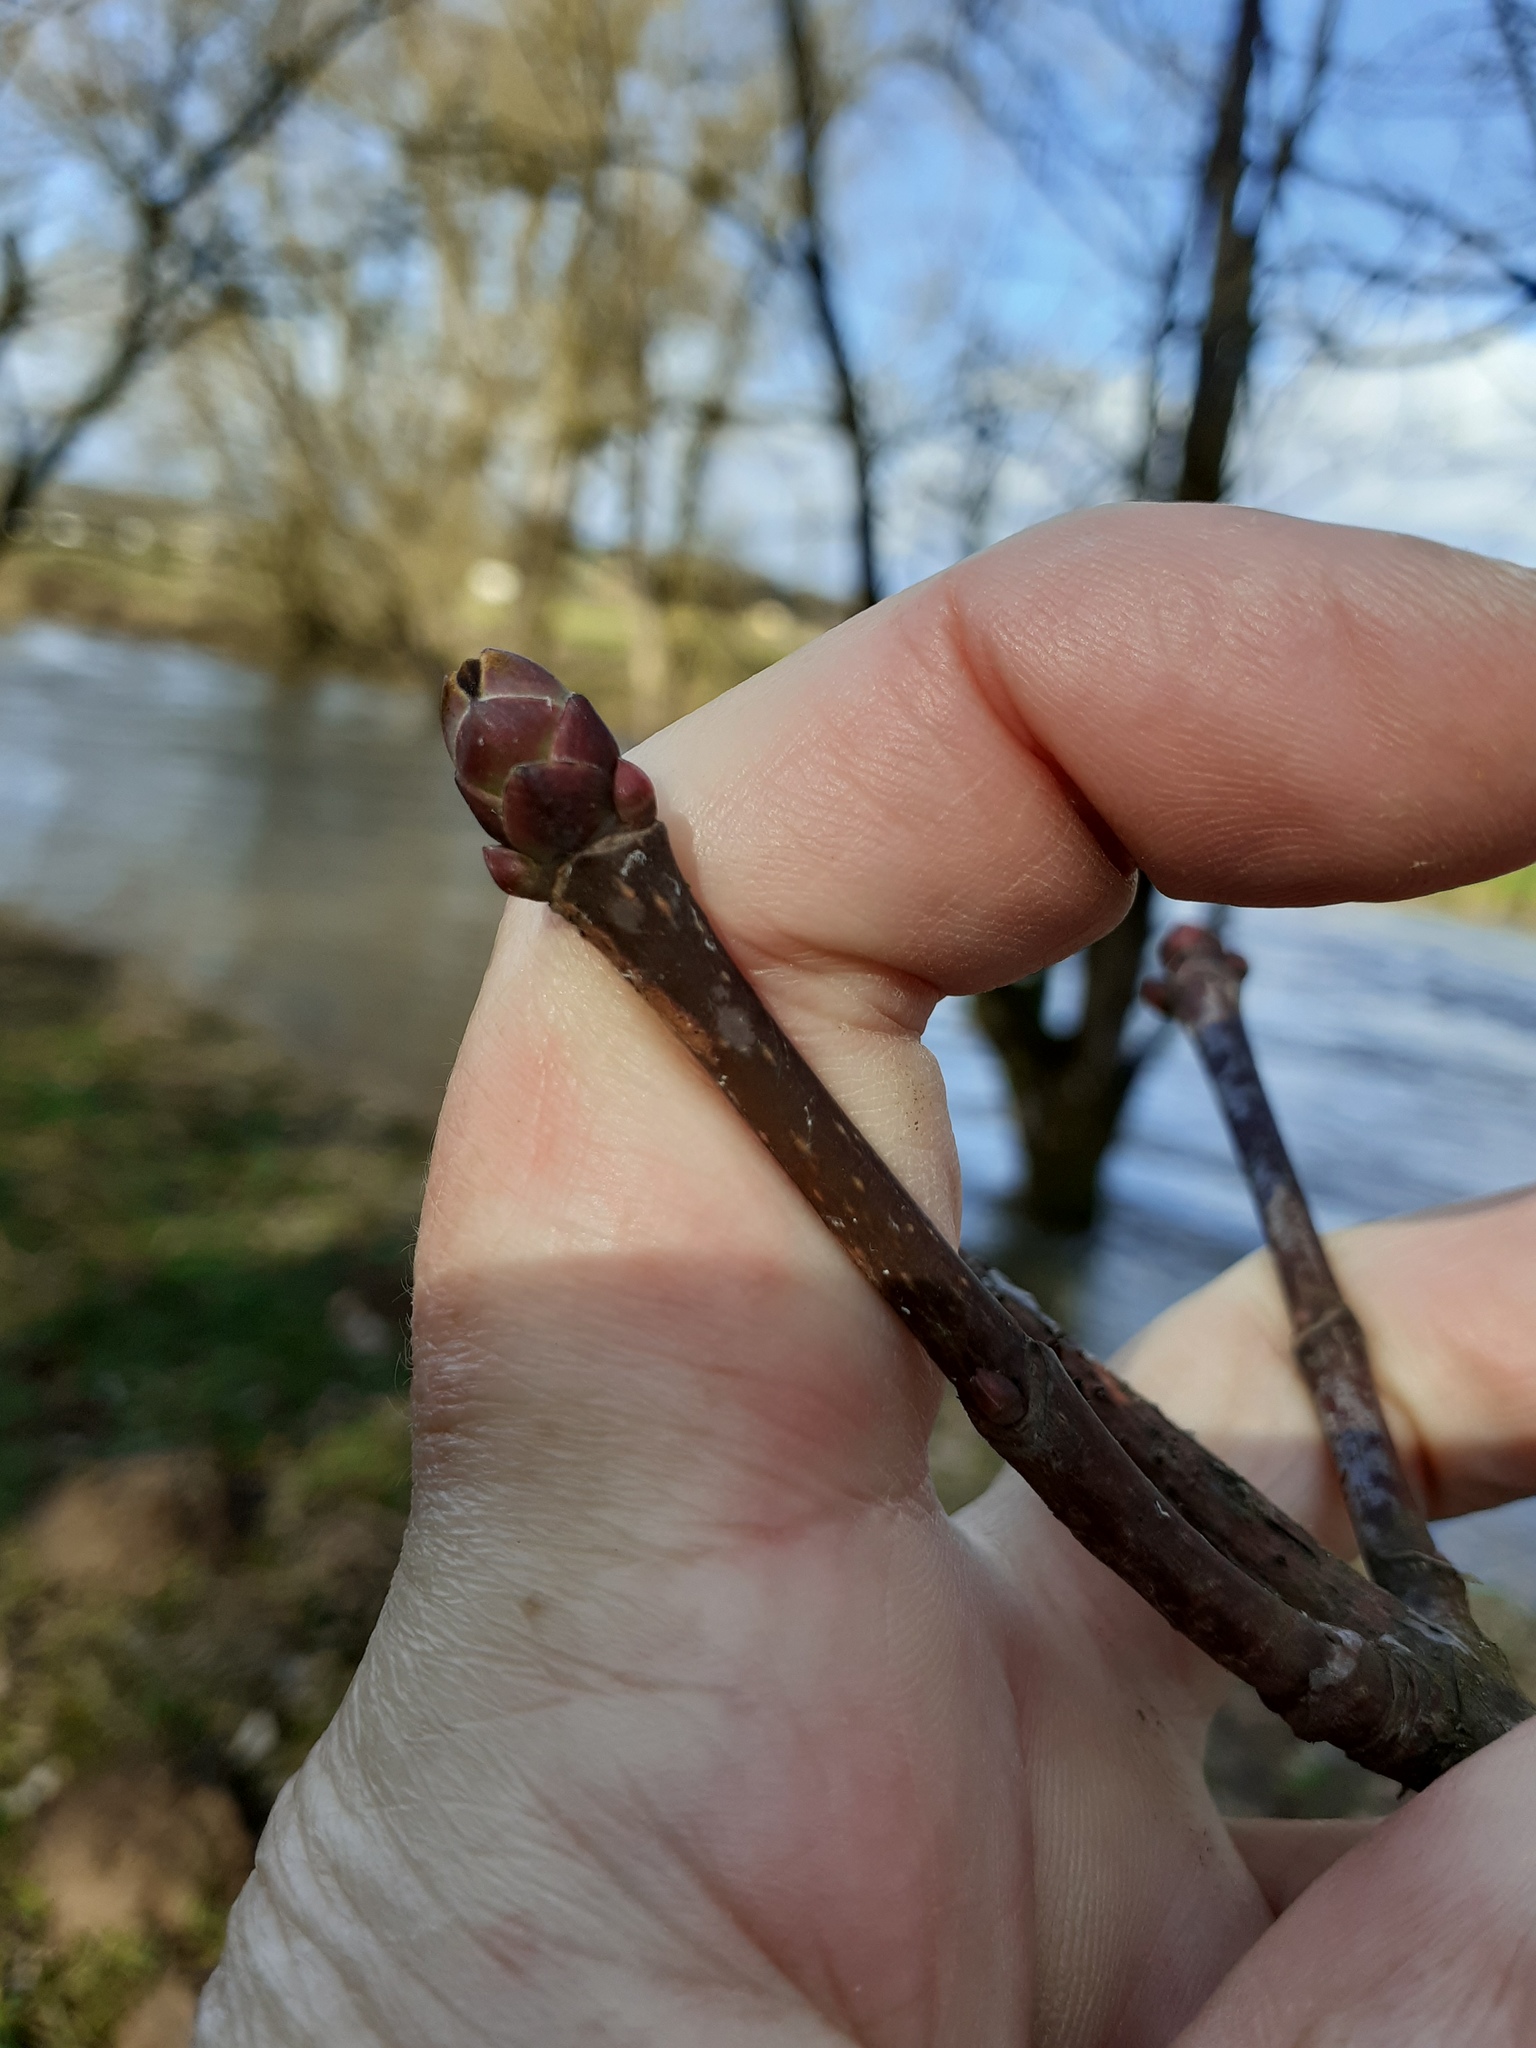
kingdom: Plantae
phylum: Tracheophyta
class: Magnoliopsida
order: Sapindales
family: Sapindaceae
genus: Acer
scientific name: Acer platanoides
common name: Norway maple
